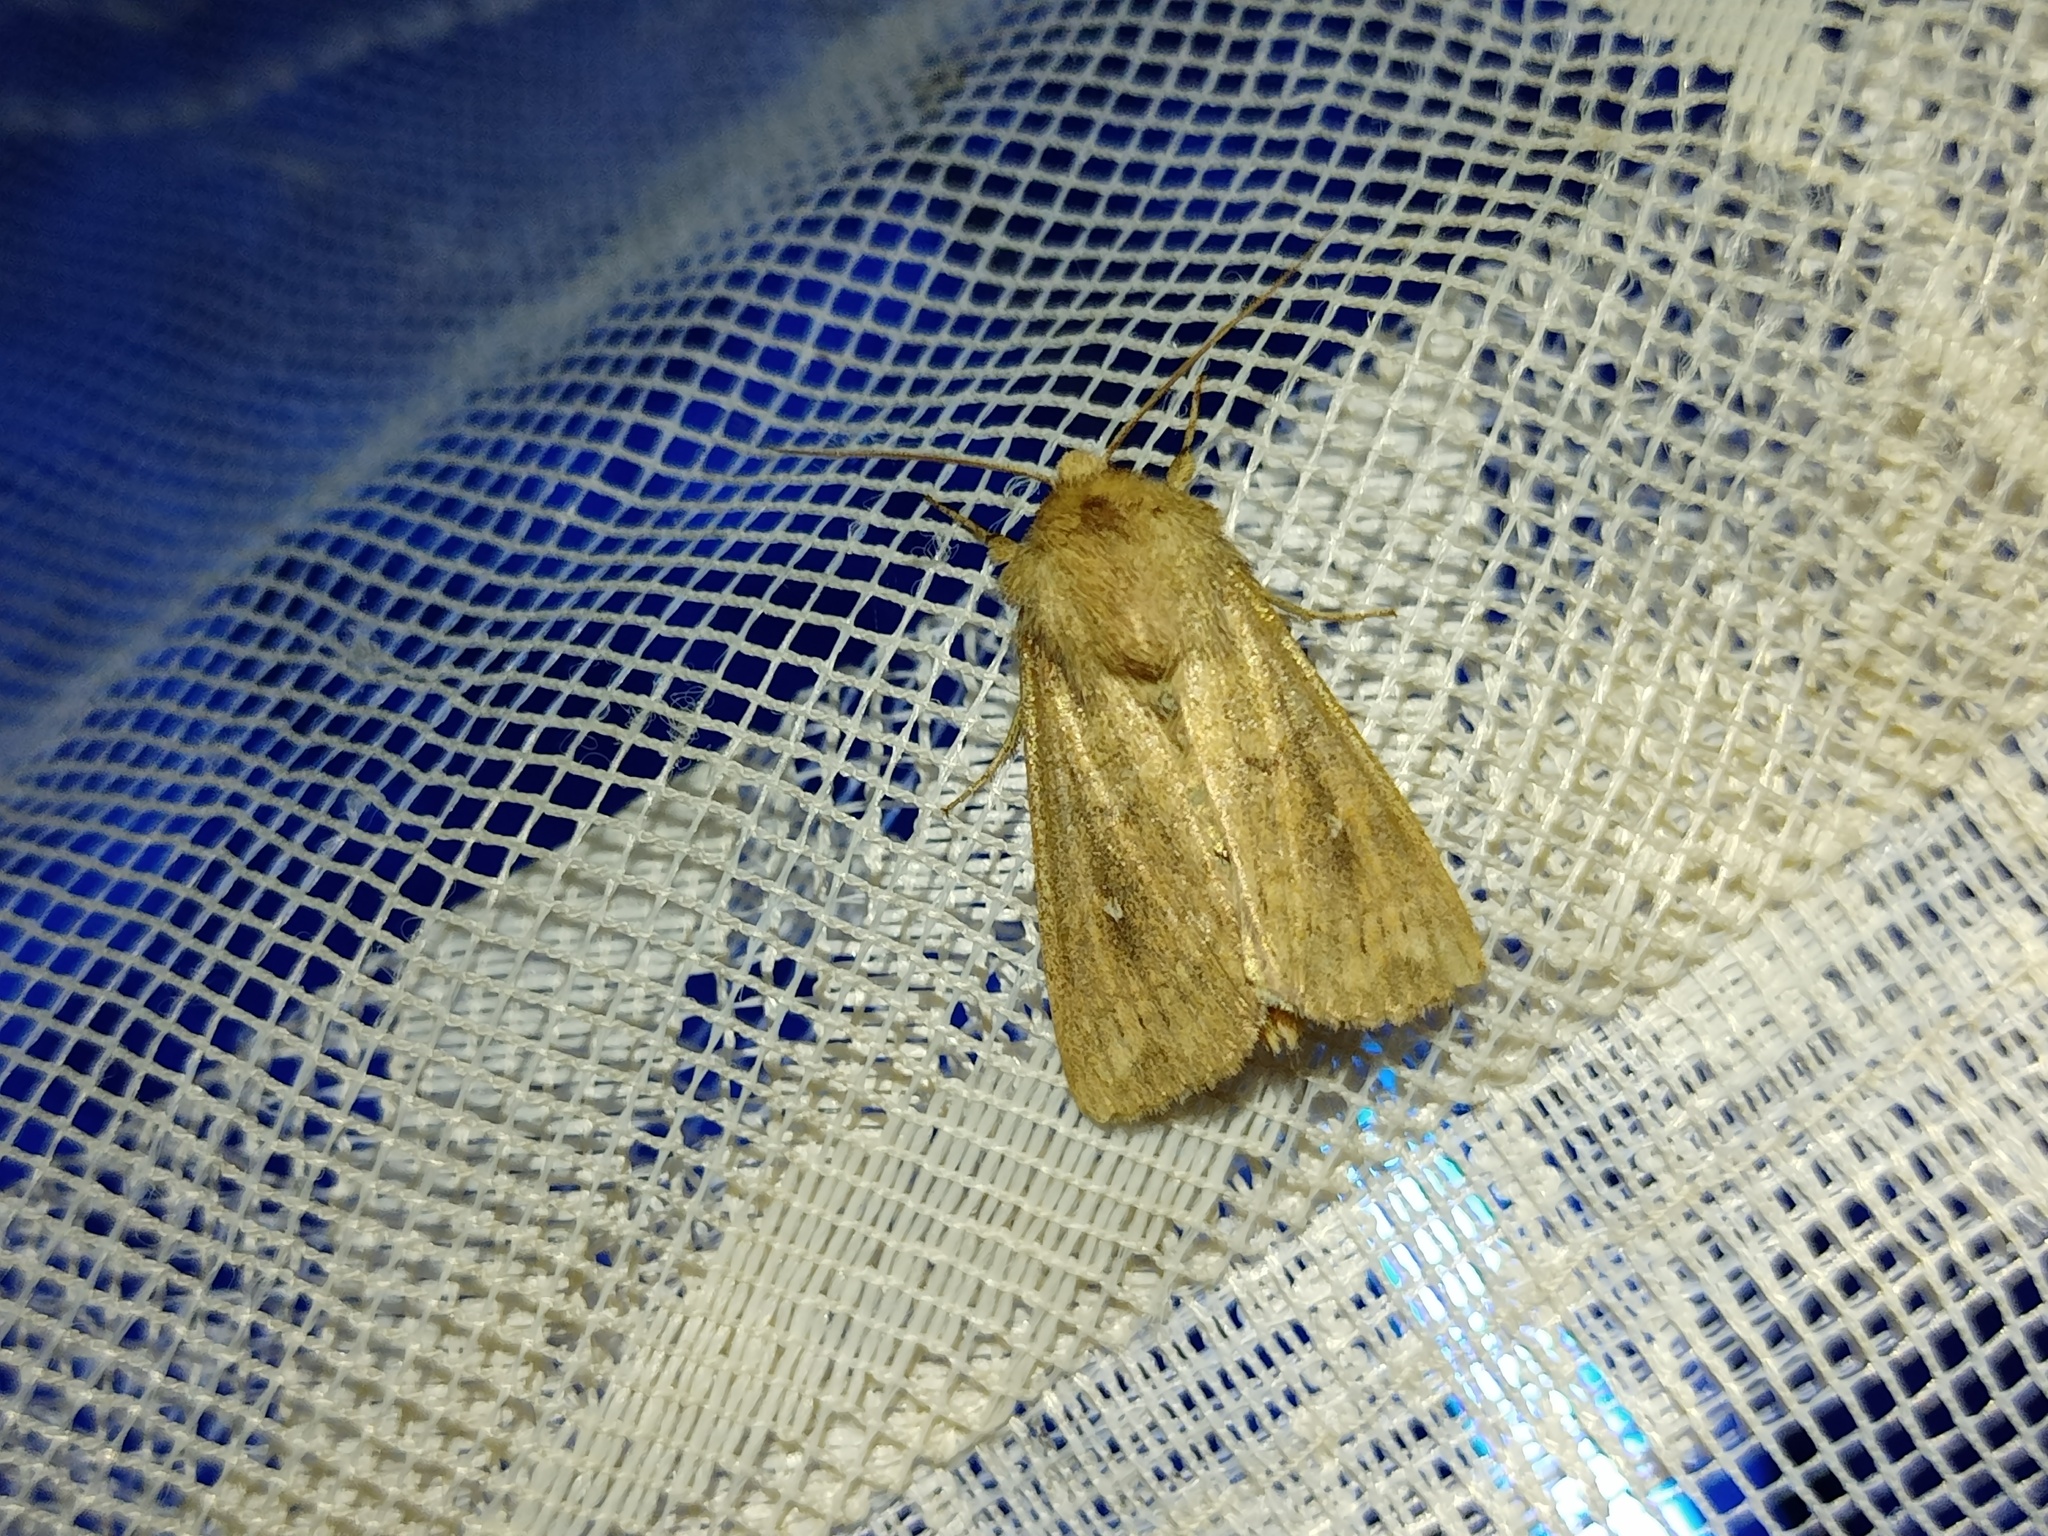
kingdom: Animalia
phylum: Arthropoda
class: Insecta
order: Lepidoptera
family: Noctuidae
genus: Mythimna
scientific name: Mythimna albipuncta
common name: White-point
